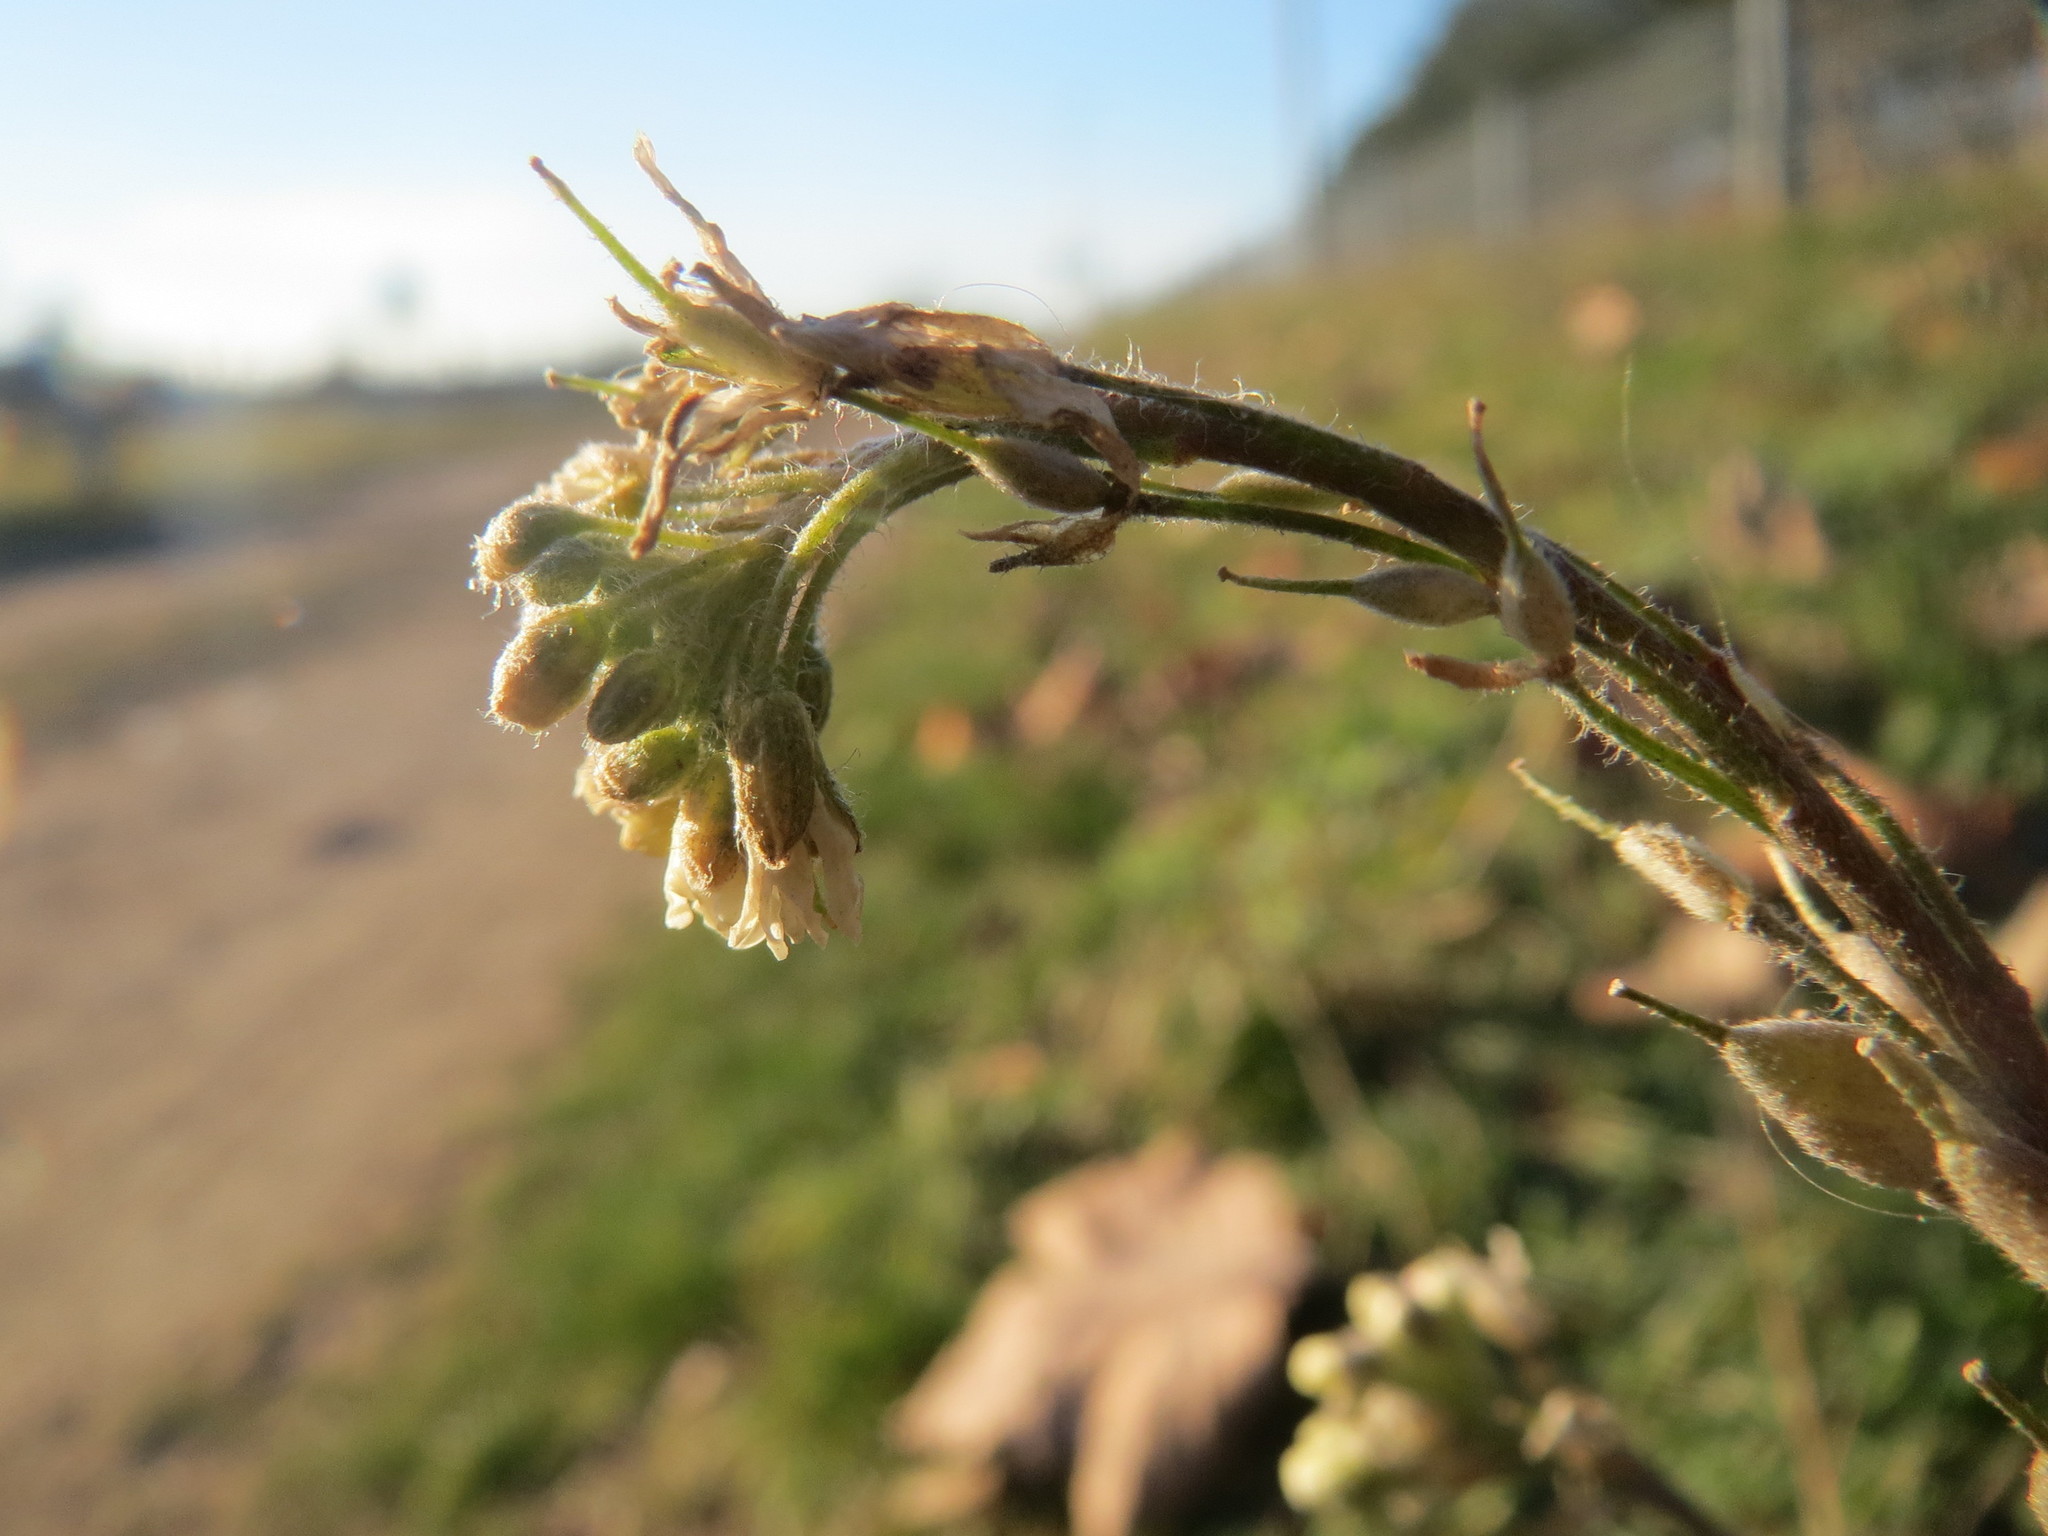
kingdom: Plantae
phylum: Tracheophyta
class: Magnoliopsida
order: Brassicales
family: Brassicaceae
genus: Berteroa
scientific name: Berteroa incana
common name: Hoary alison
